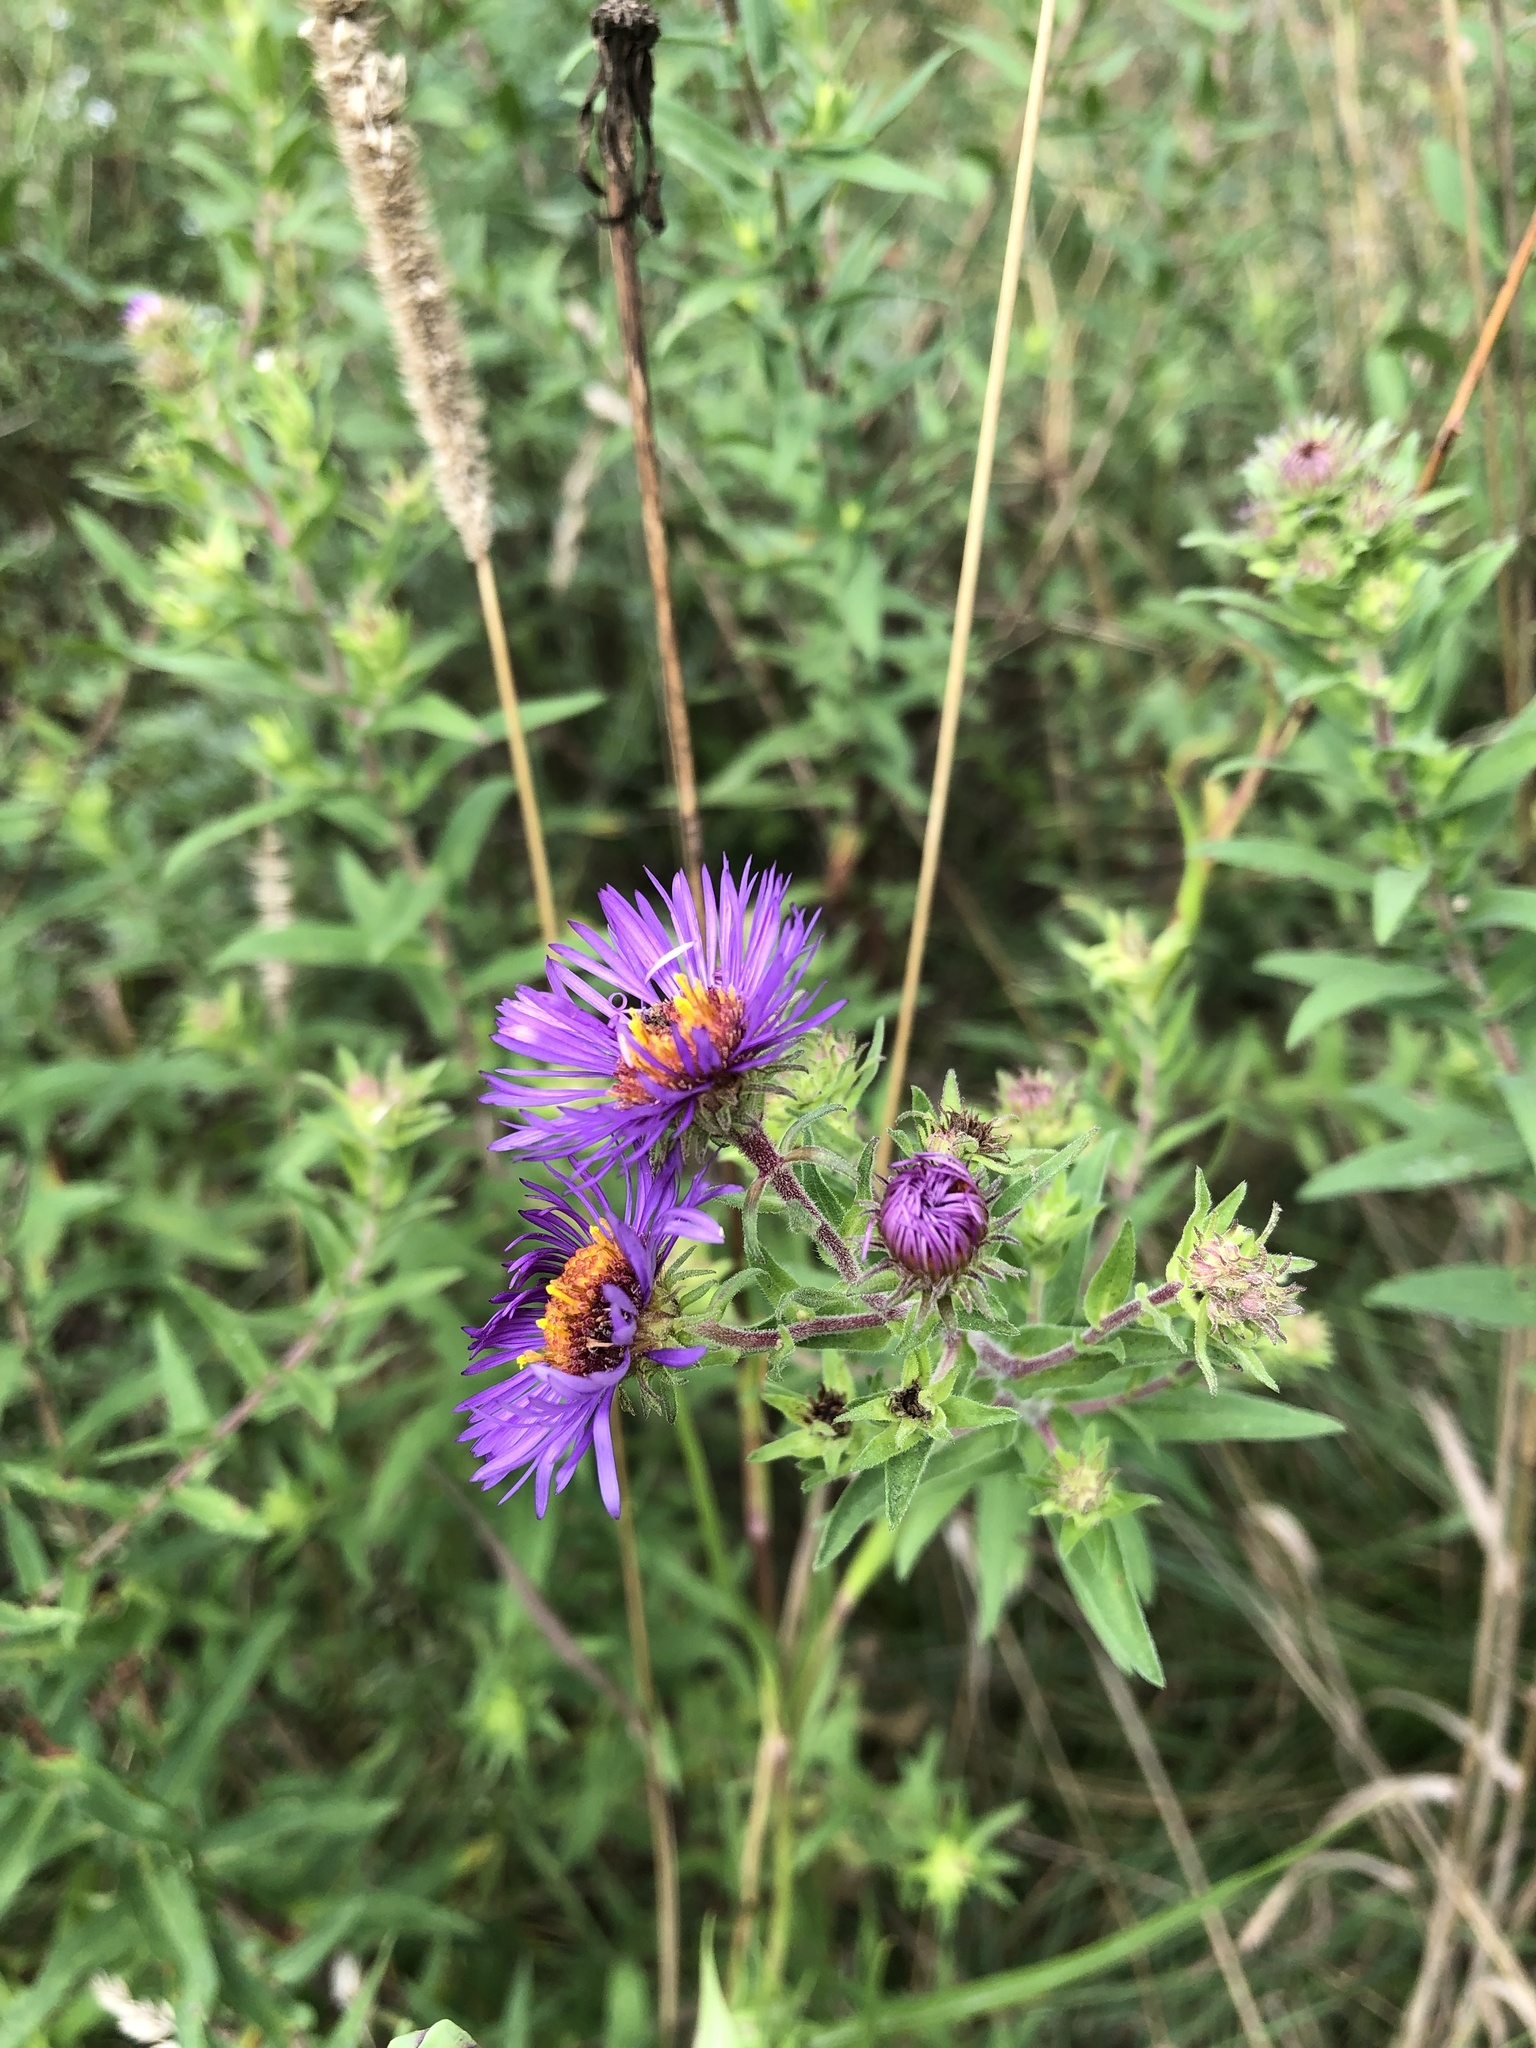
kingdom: Plantae
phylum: Tracheophyta
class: Magnoliopsida
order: Asterales
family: Asteraceae
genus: Symphyotrichum
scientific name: Symphyotrichum novae-angliae
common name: Michaelmas daisy
